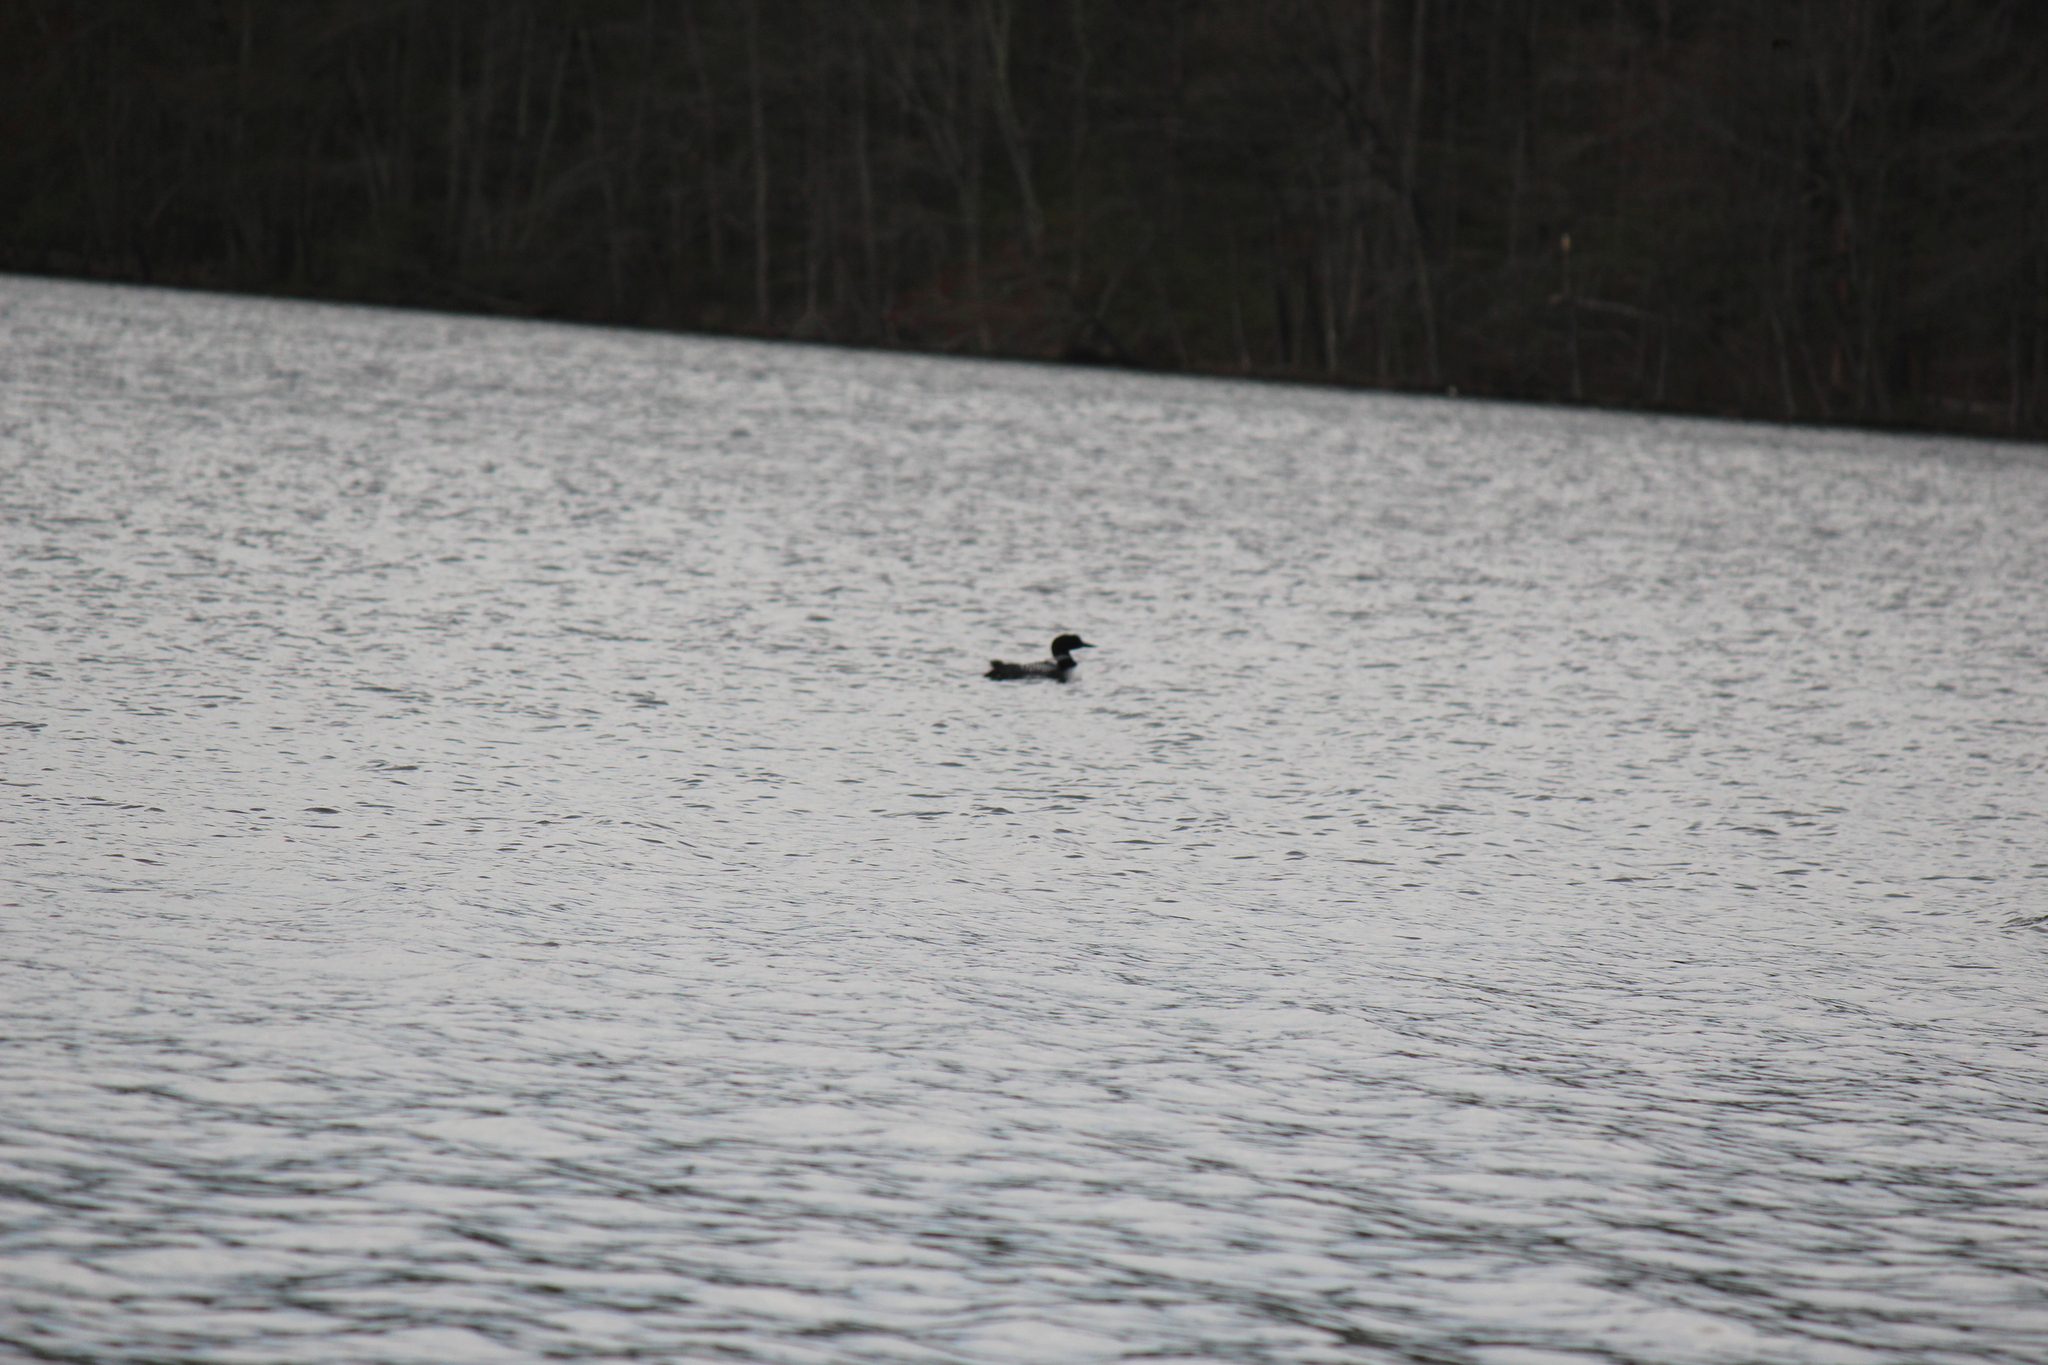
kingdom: Animalia
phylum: Chordata
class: Aves
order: Gaviiformes
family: Gaviidae
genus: Gavia
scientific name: Gavia immer
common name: Common loon
